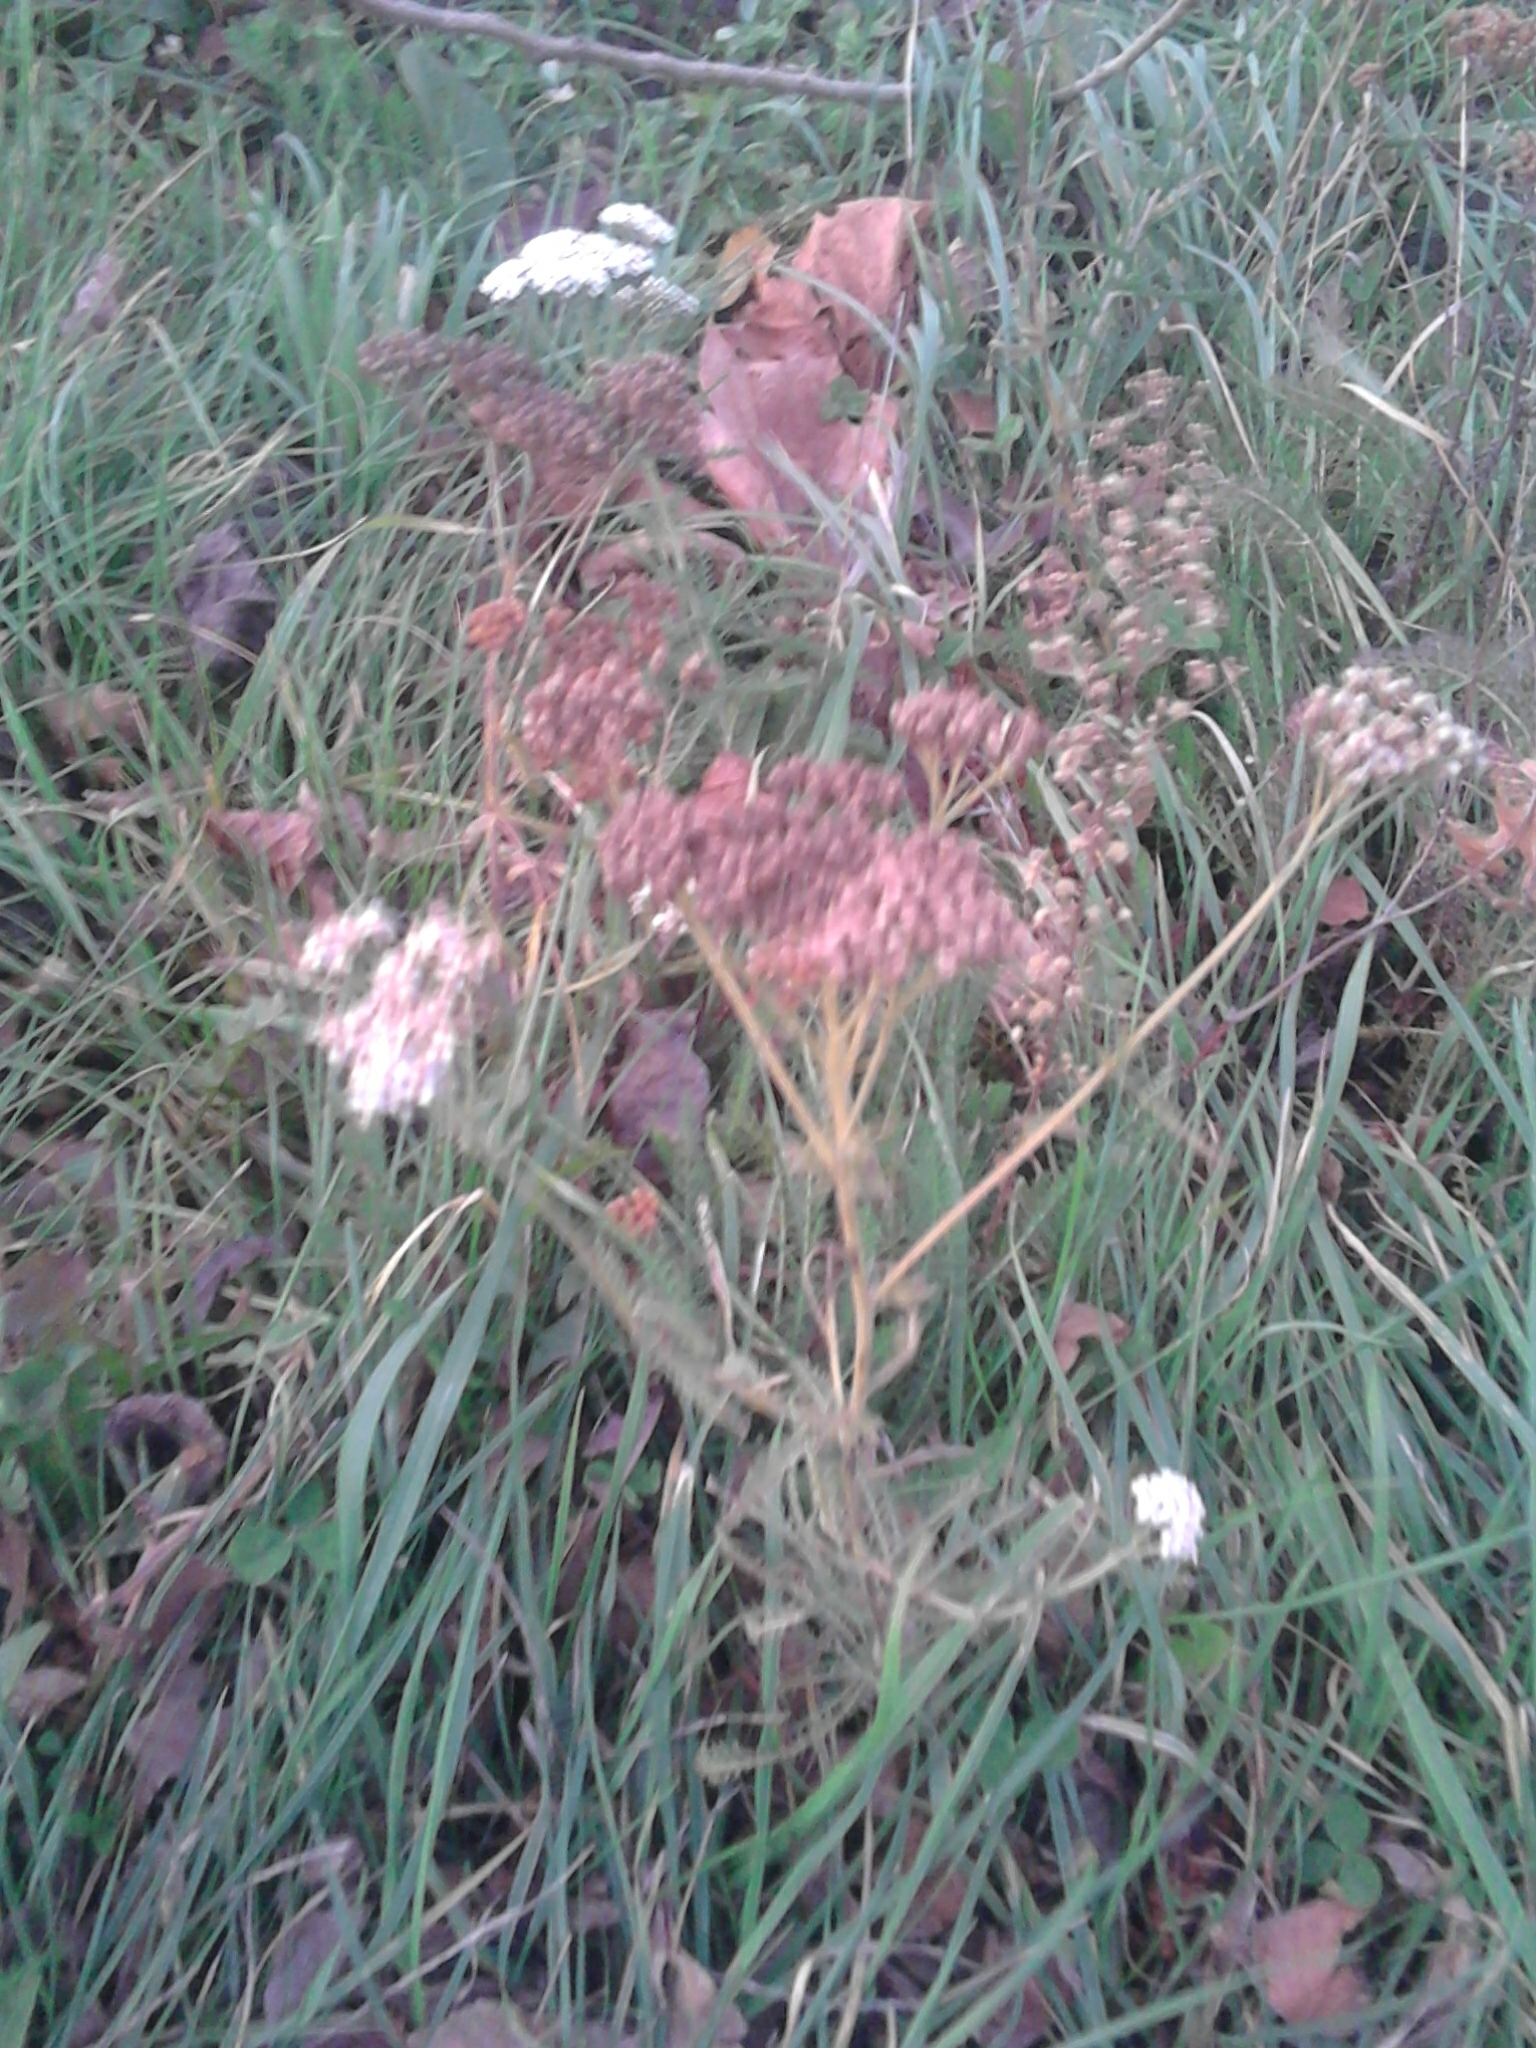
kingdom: Plantae
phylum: Tracheophyta
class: Magnoliopsida
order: Asterales
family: Asteraceae
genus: Achillea
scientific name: Achillea millefolium
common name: Yarrow
